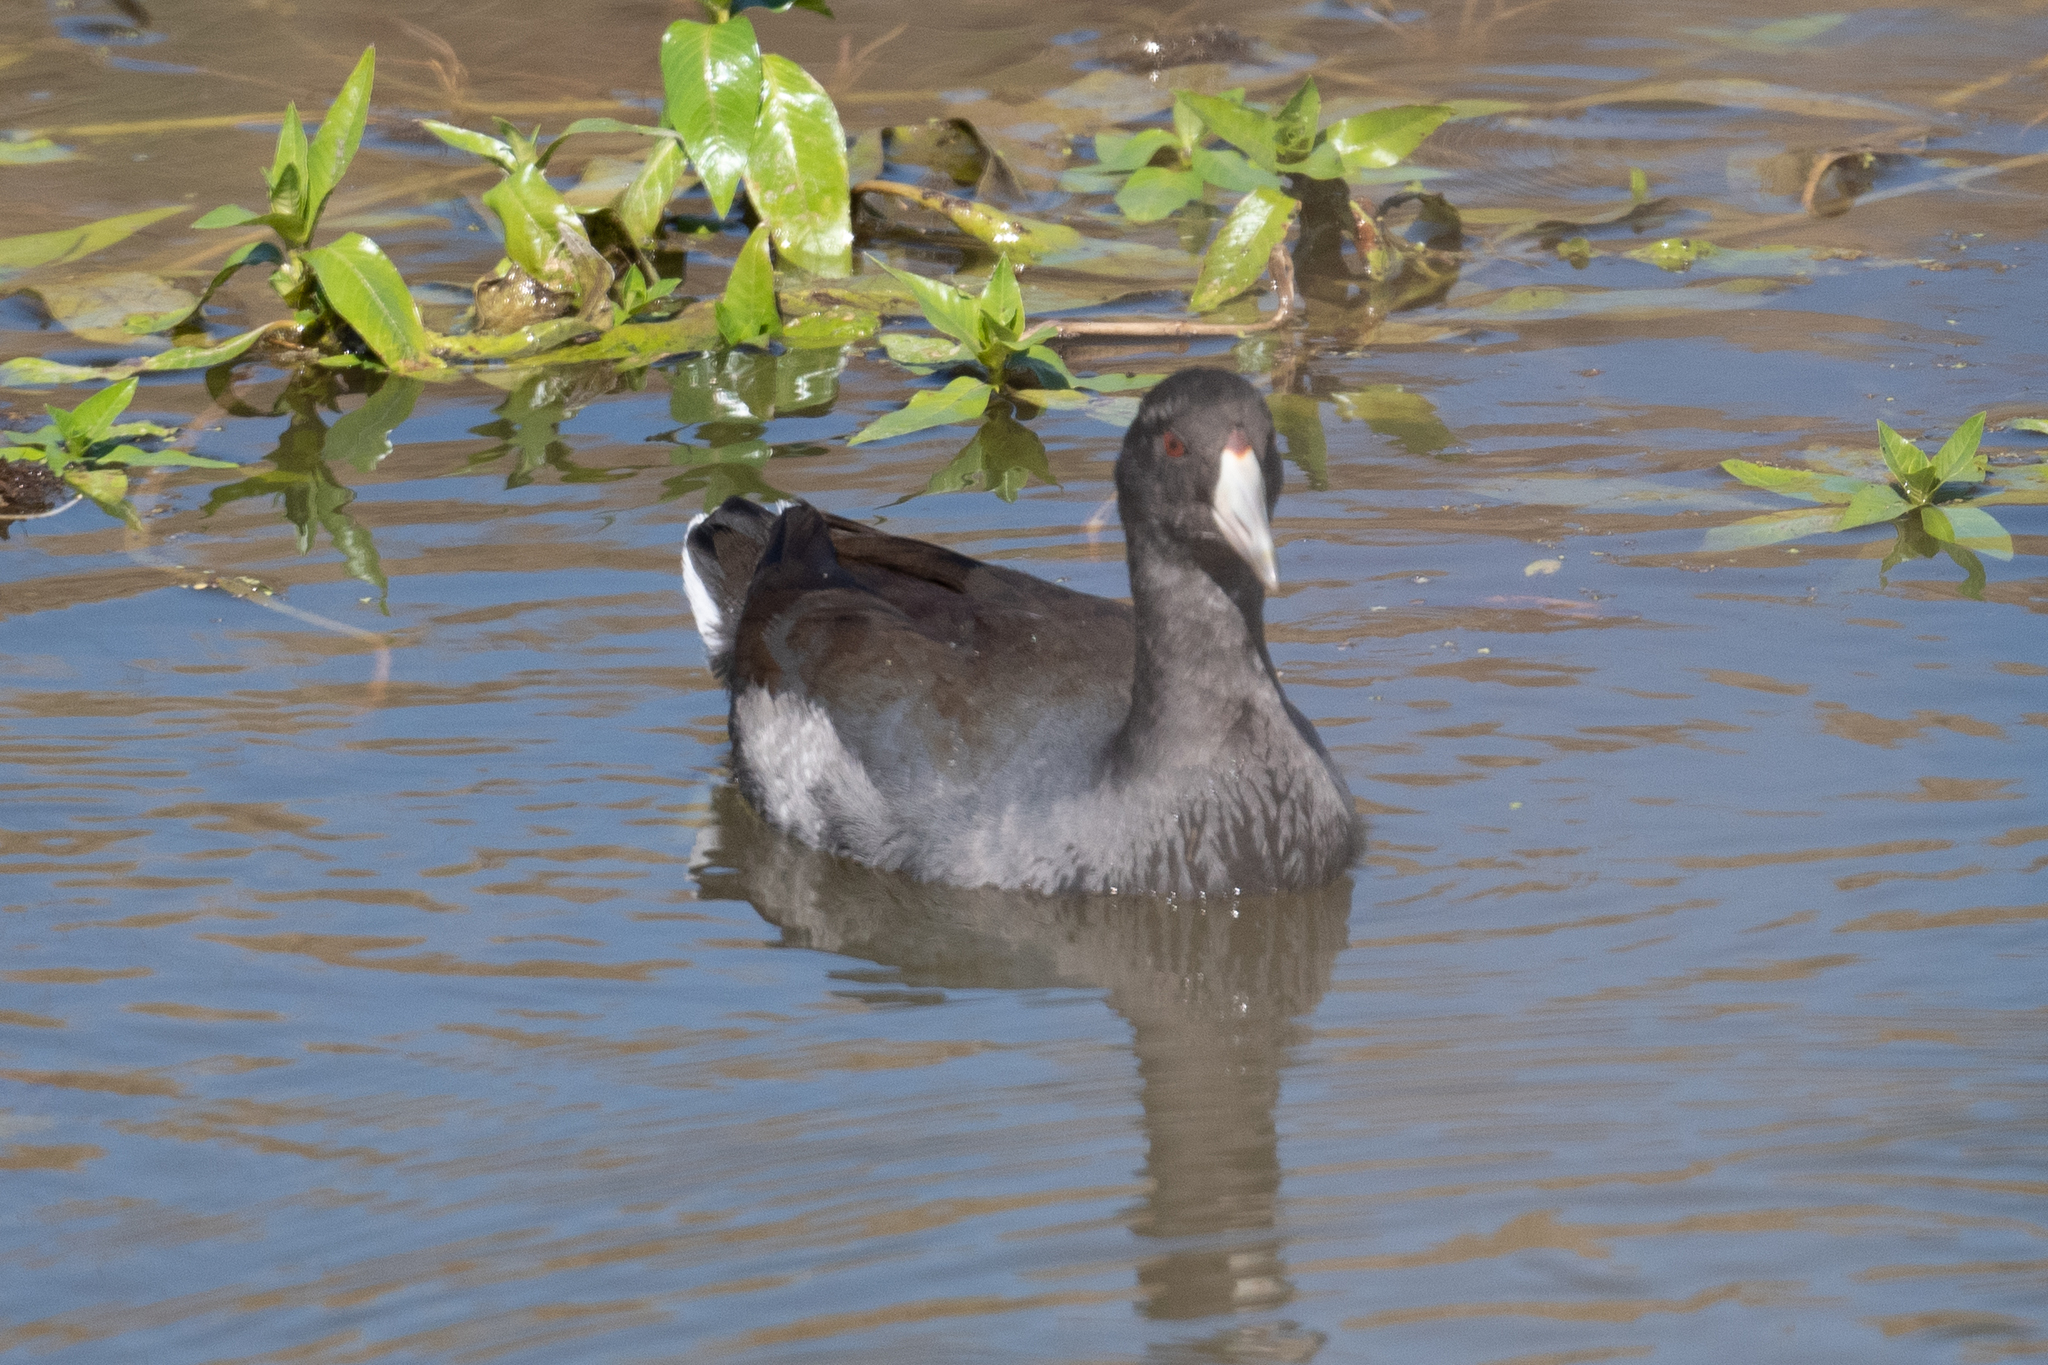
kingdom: Animalia
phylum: Chordata
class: Aves
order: Gruiformes
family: Rallidae
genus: Fulica
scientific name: Fulica americana
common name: American coot
